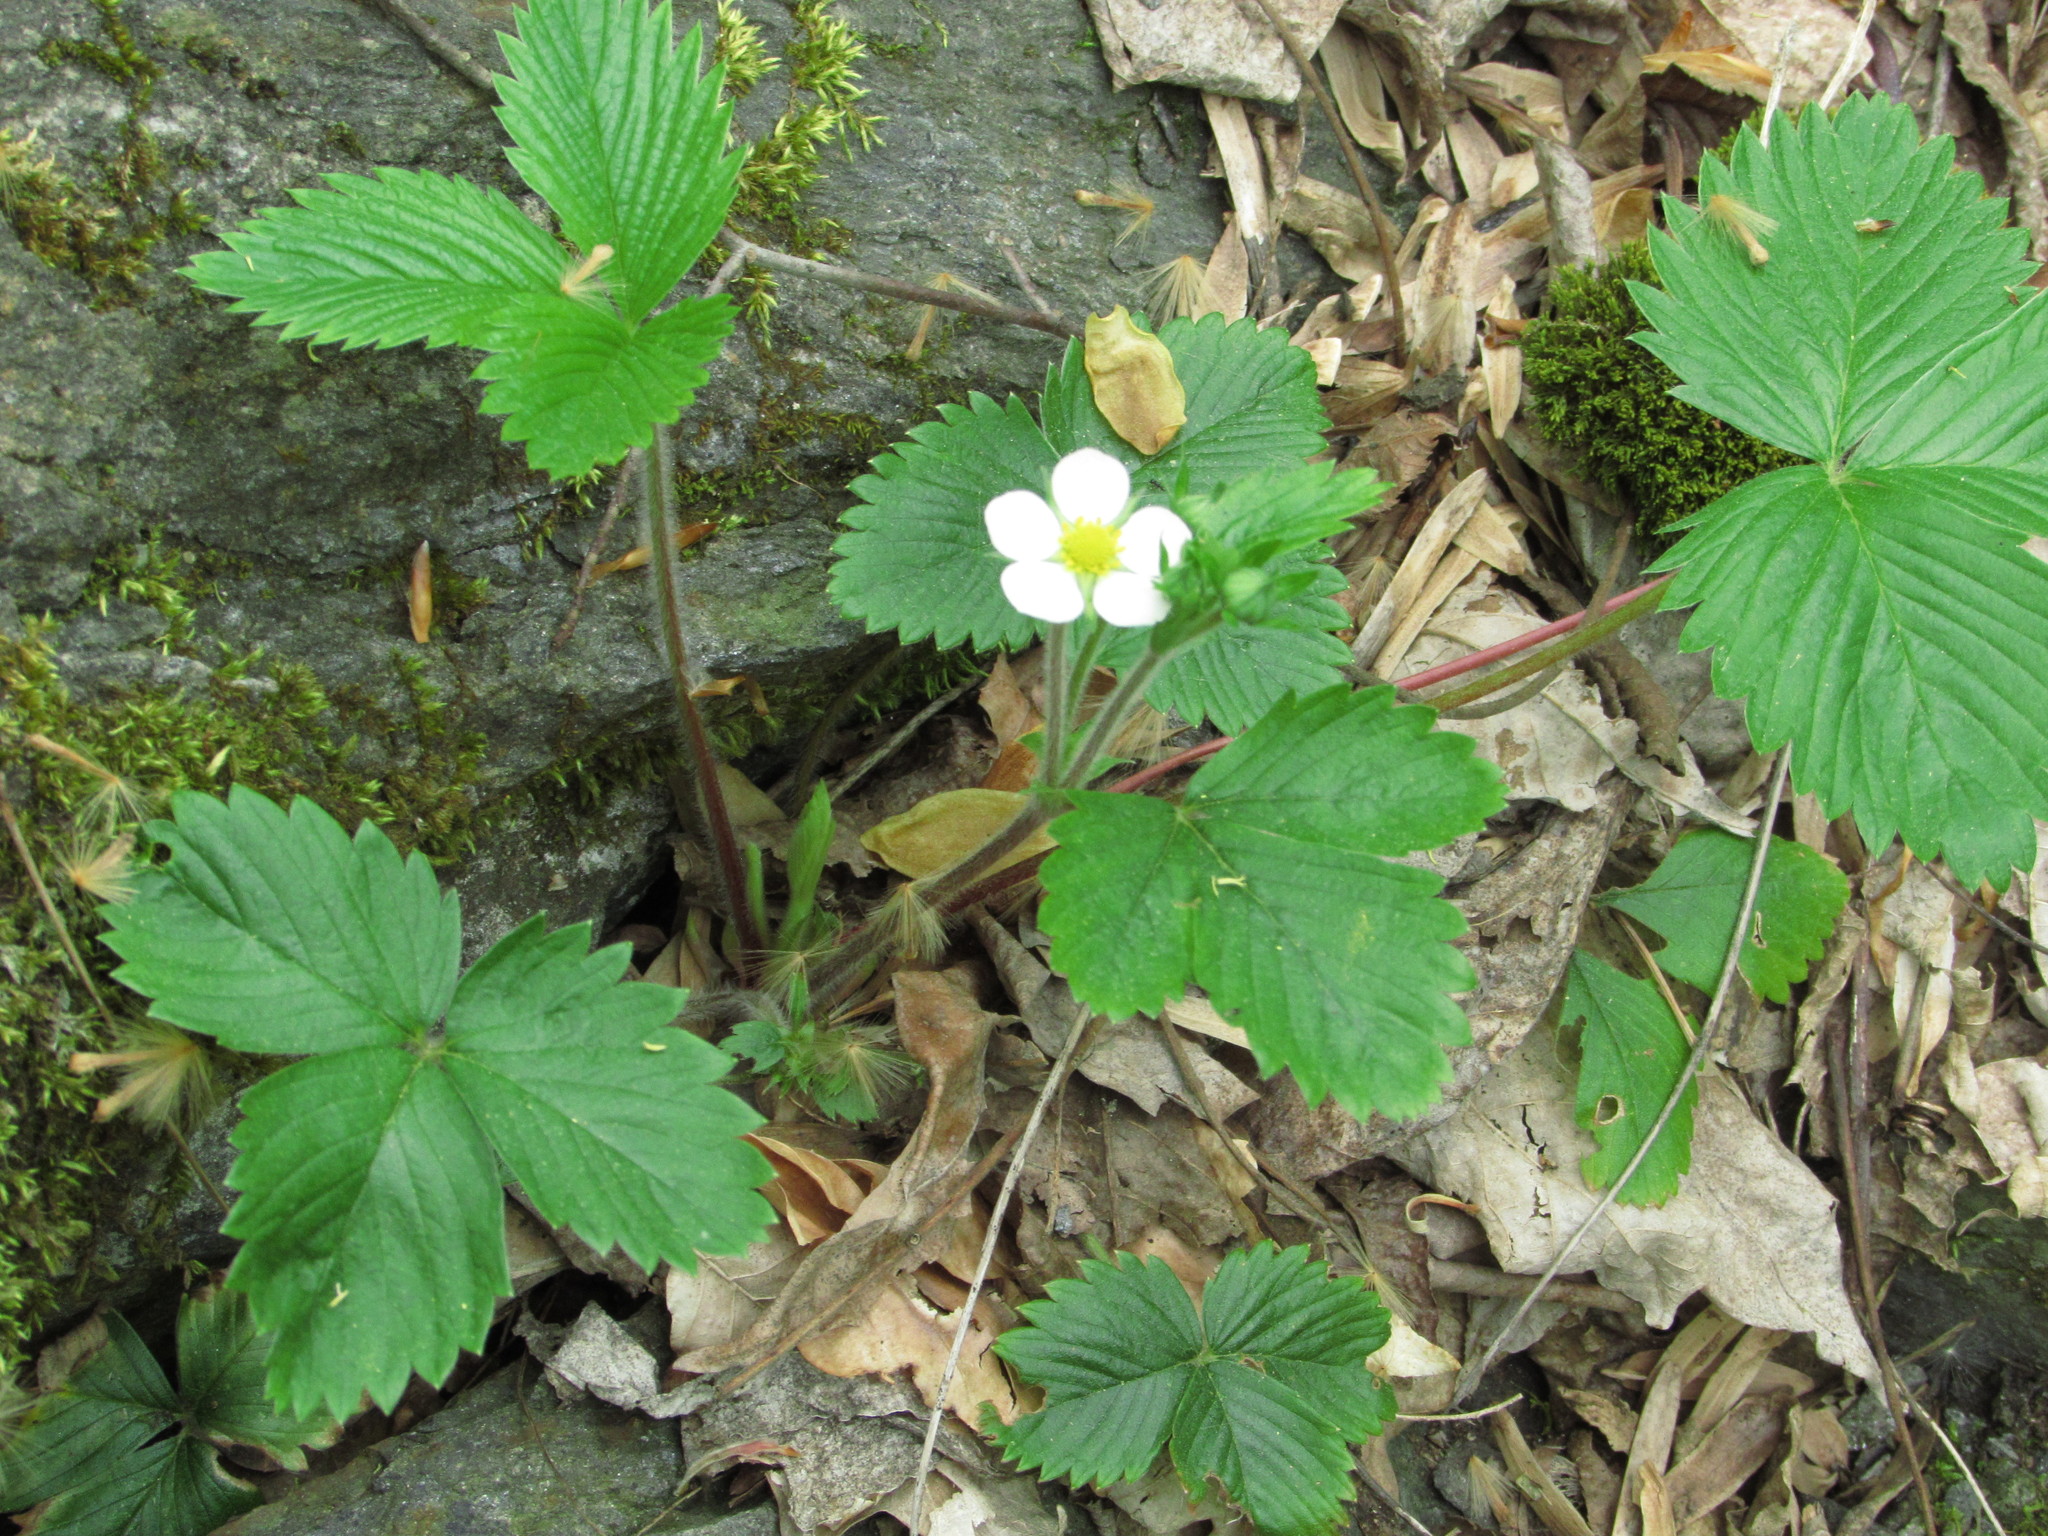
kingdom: Plantae
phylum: Tracheophyta
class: Magnoliopsida
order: Rosales
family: Rosaceae
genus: Fragaria
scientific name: Fragaria vesca
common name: Wild strawberry
